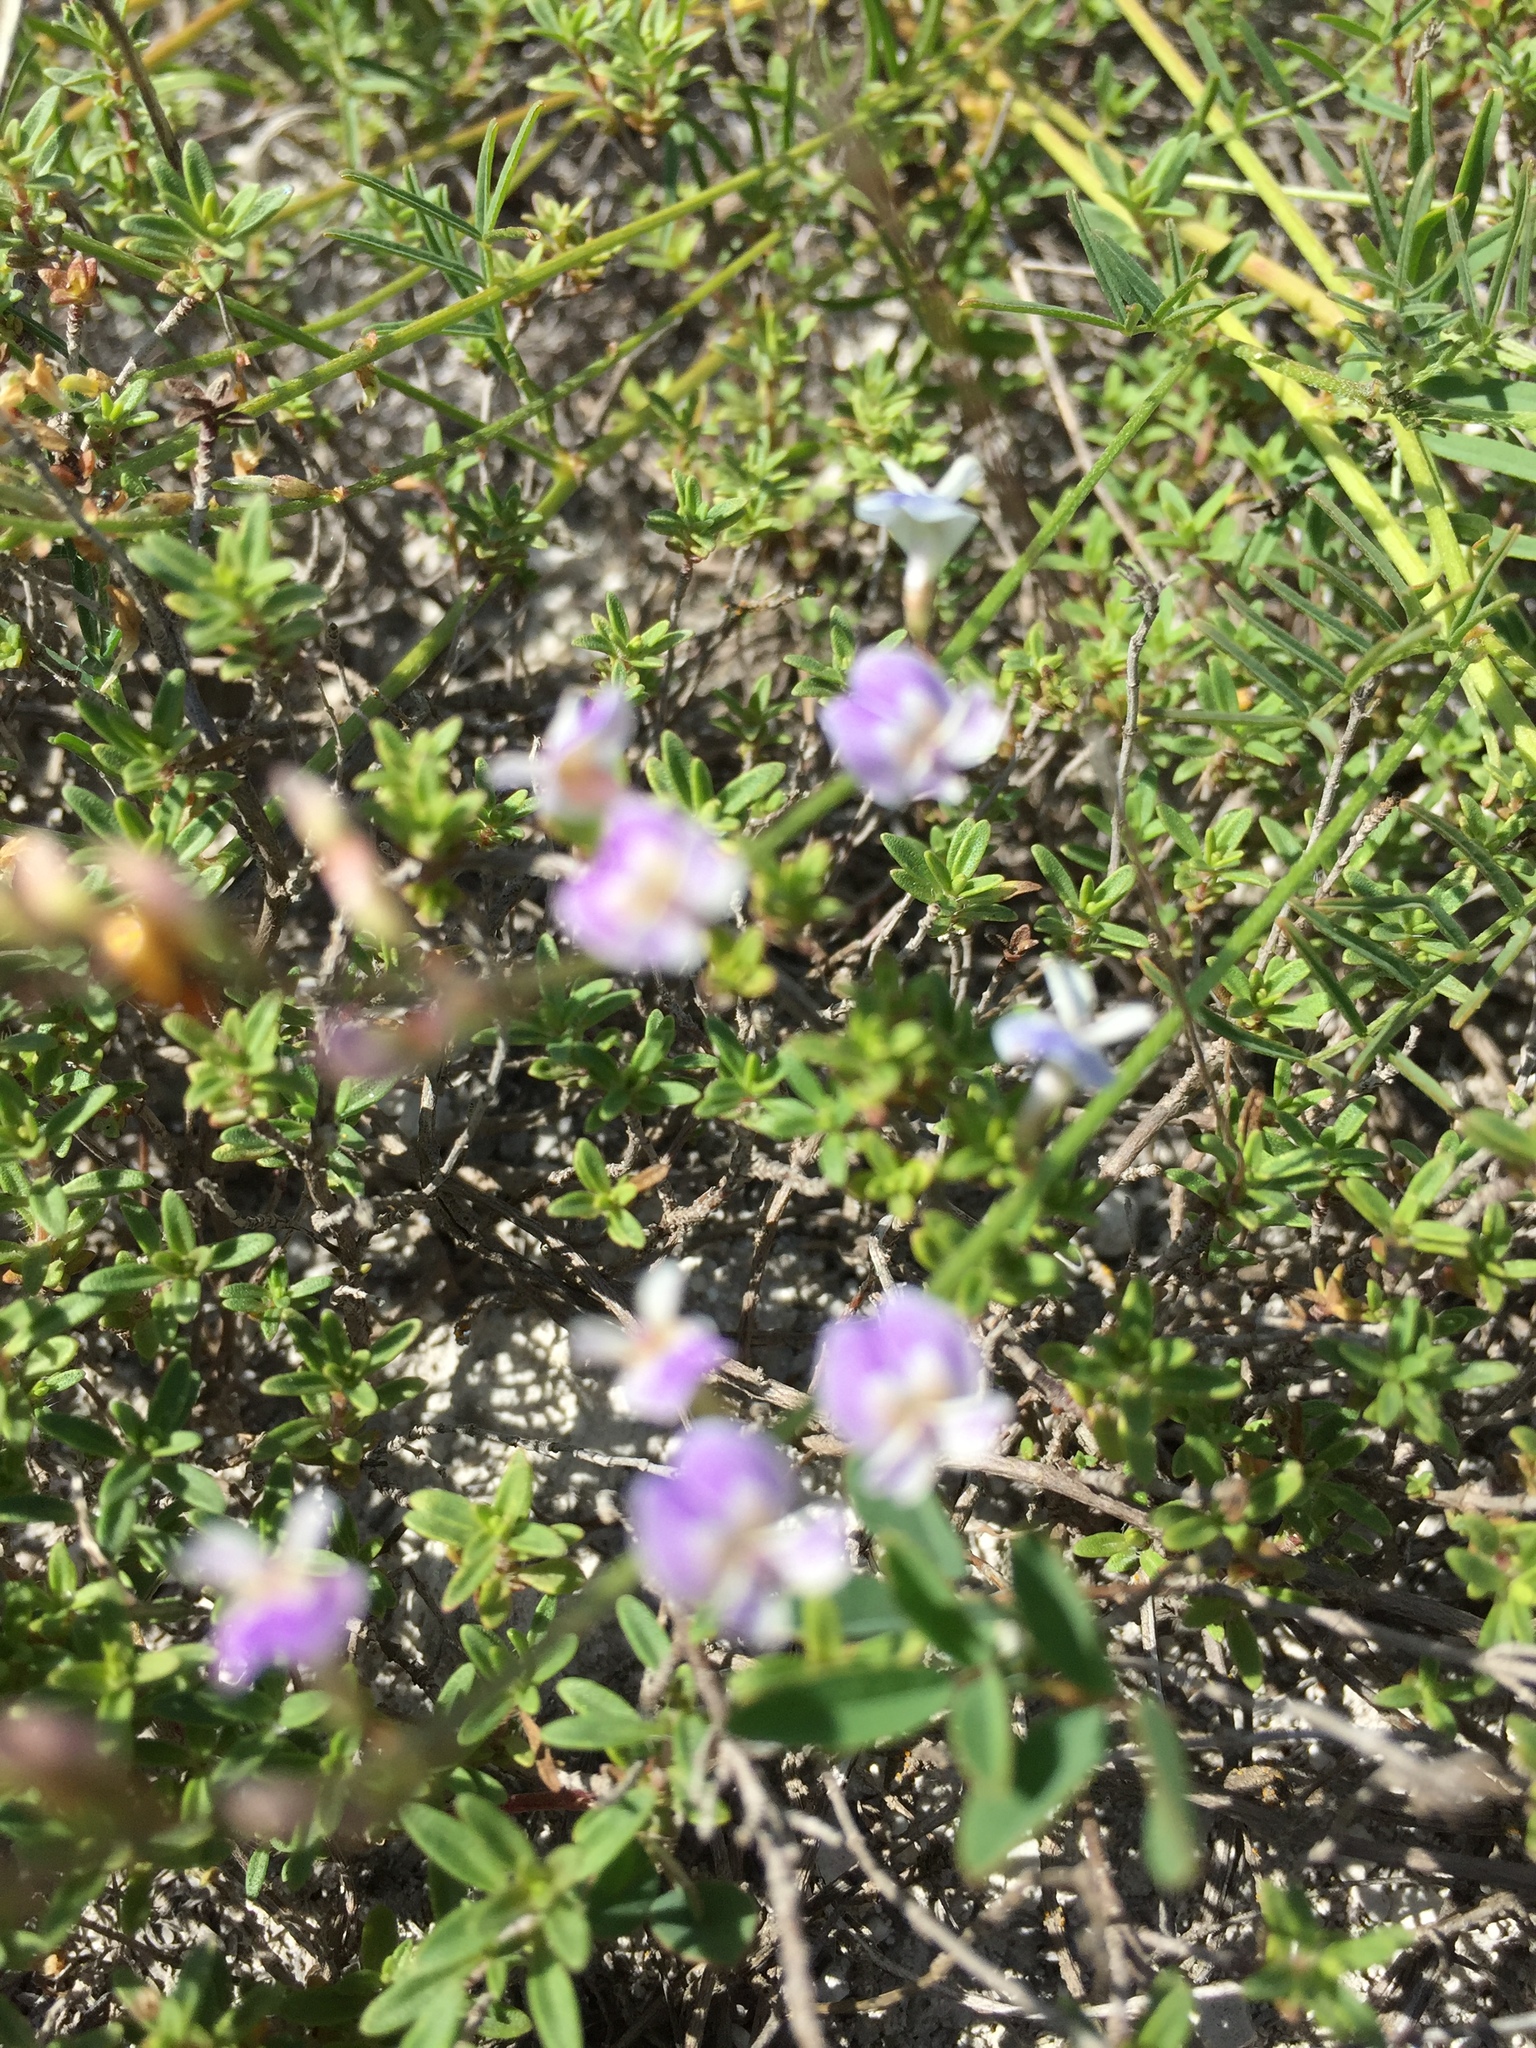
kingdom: Plantae
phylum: Tracheophyta
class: Magnoliopsida
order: Fabales
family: Fabaceae
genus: Astragalus
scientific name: Astragalus austriacus
